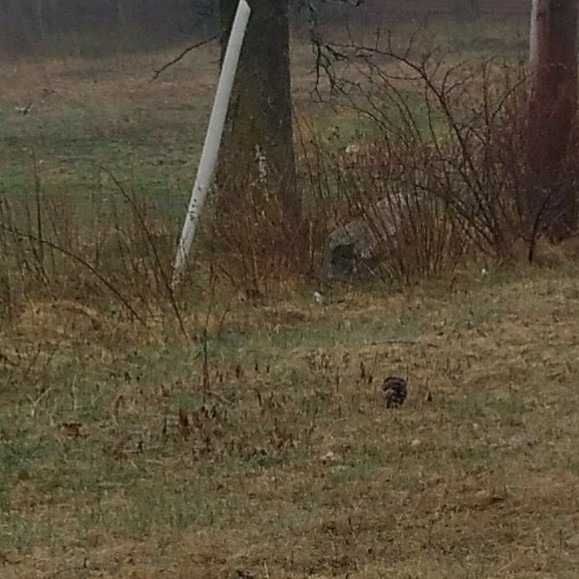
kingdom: Animalia
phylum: Chordata
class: Aves
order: Piciformes
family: Picidae
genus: Colaptes
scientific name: Colaptes auratus
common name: Northern flicker
